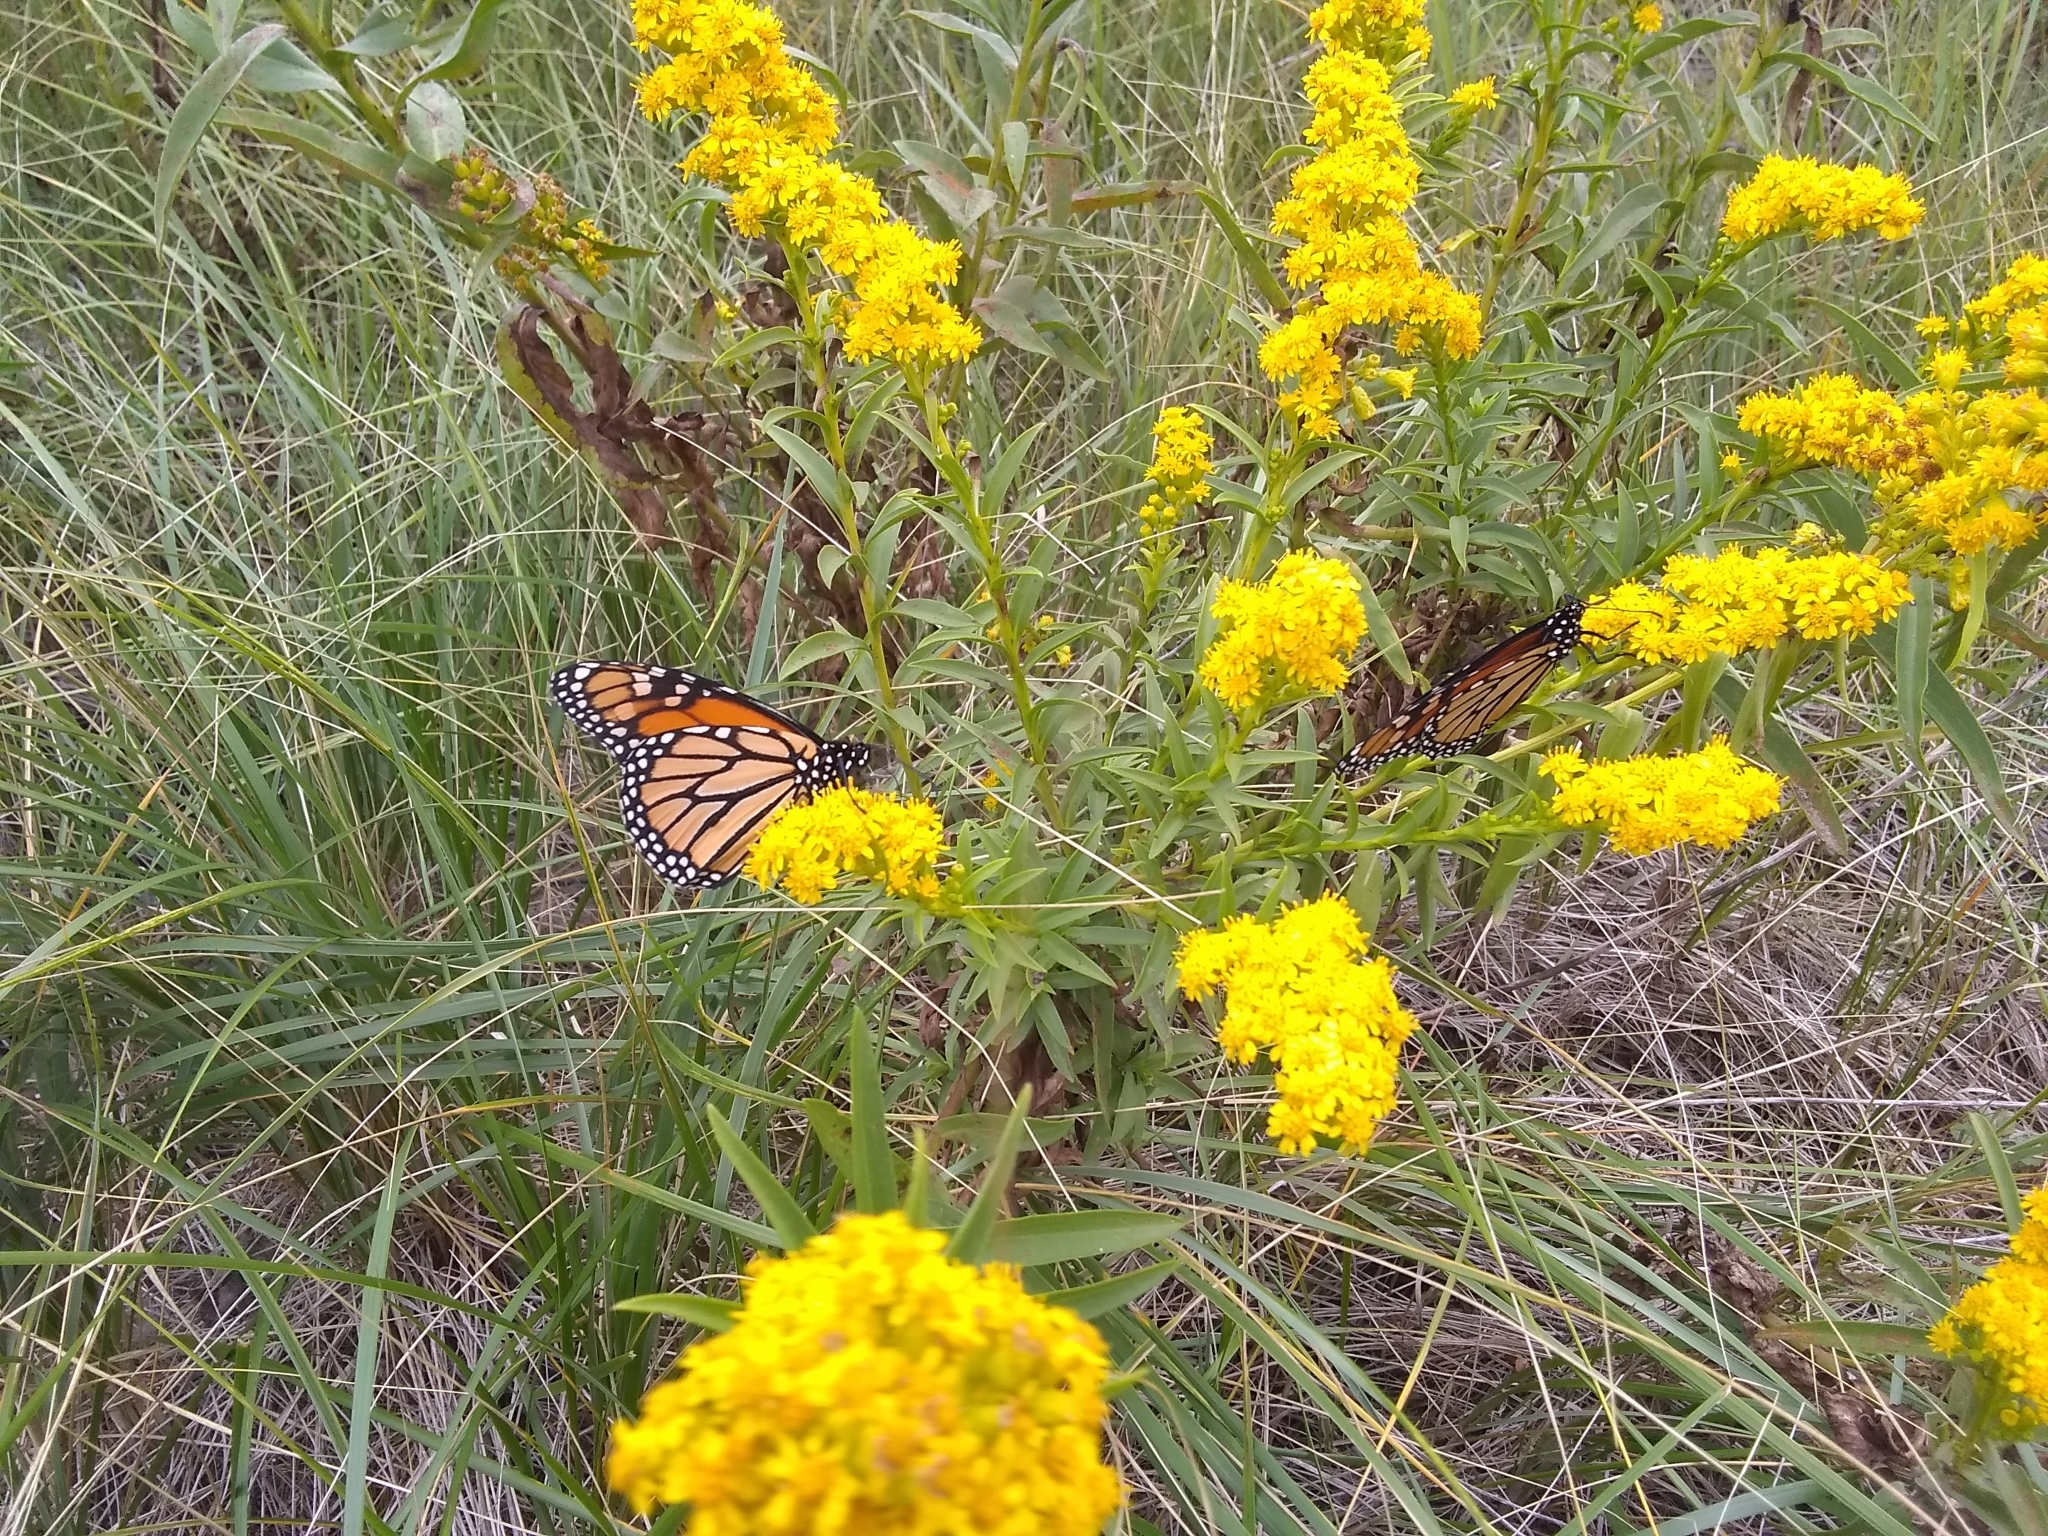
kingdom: Animalia
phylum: Arthropoda
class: Insecta
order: Lepidoptera
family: Nymphalidae
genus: Danaus
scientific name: Danaus plexippus
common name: Monarch
